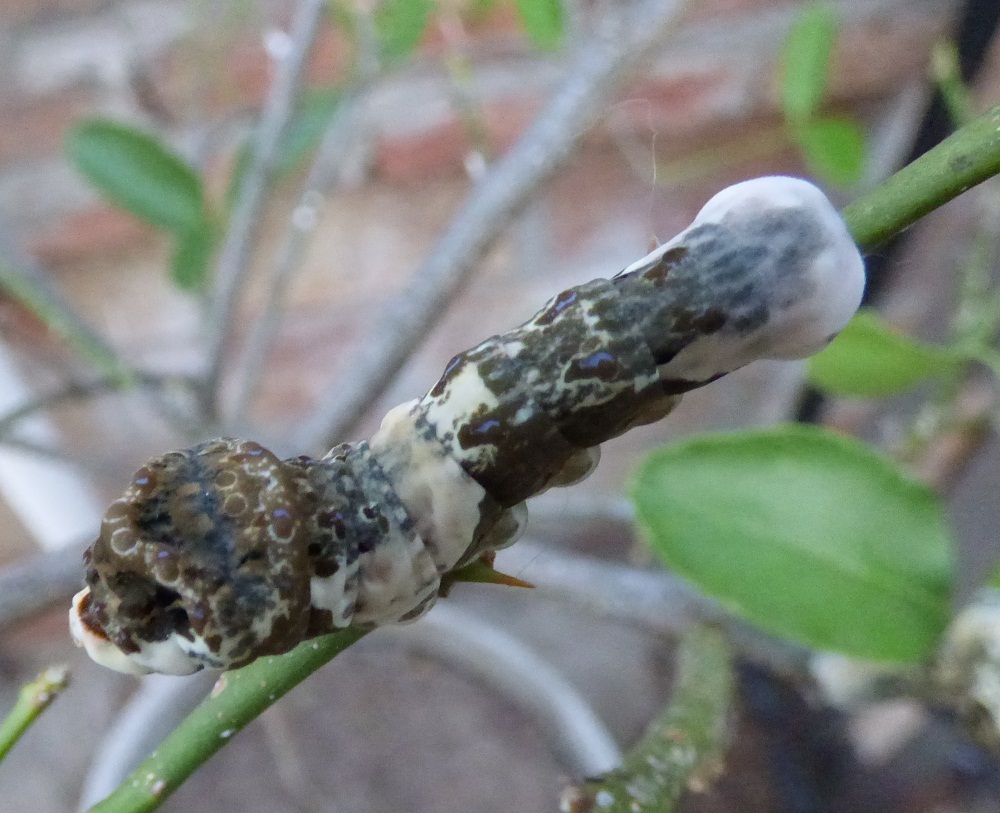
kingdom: Animalia
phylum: Arthropoda
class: Insecta
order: Lepidoptera
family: Papilionidae
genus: Papilio
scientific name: Papilio thoas
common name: King swallowtail
